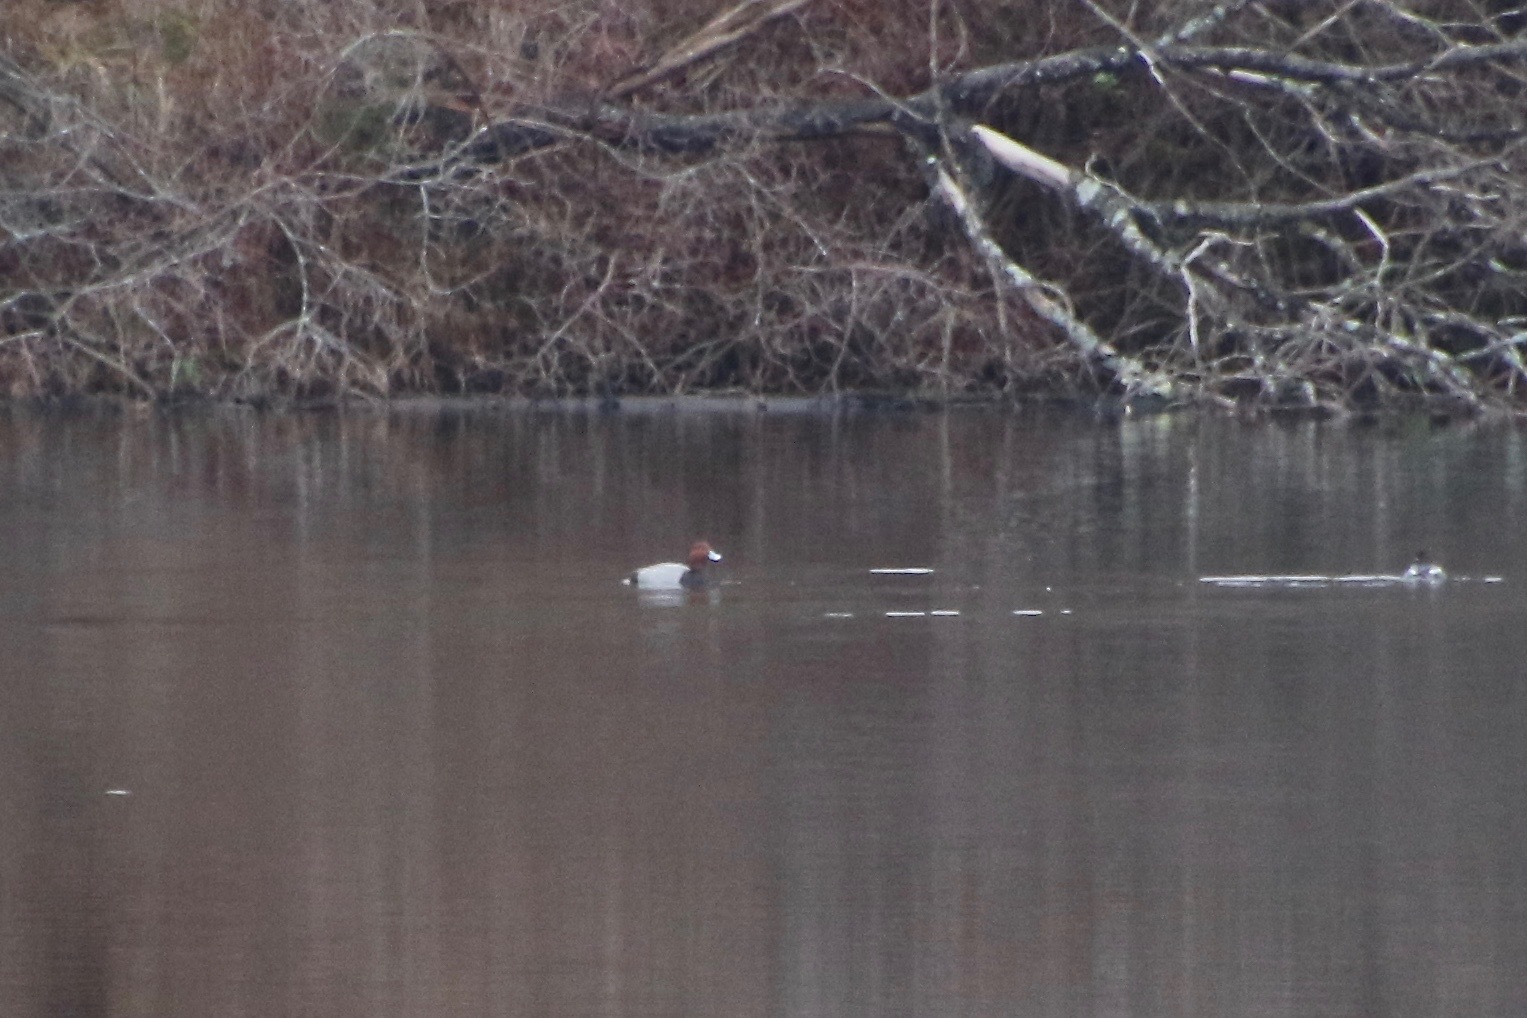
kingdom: Animalia
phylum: Chordata
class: Aves
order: Anseriformes
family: Anatidae
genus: Aythya
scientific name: Aythya americana
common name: Redhead
